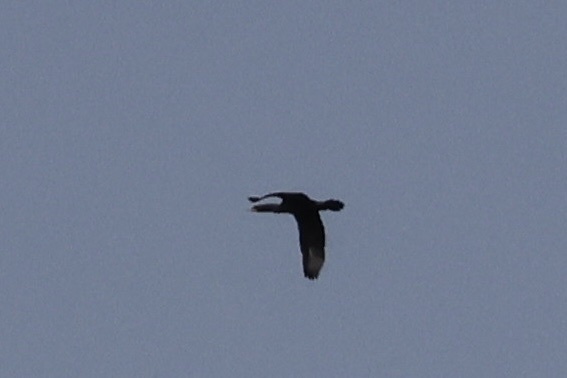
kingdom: Animalia
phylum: Chordata
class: Aves
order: Suliformes
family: Phalacrocoracidae
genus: Phalacrocorax
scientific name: Phalacrocorax auritus
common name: Double-crested cormorant
